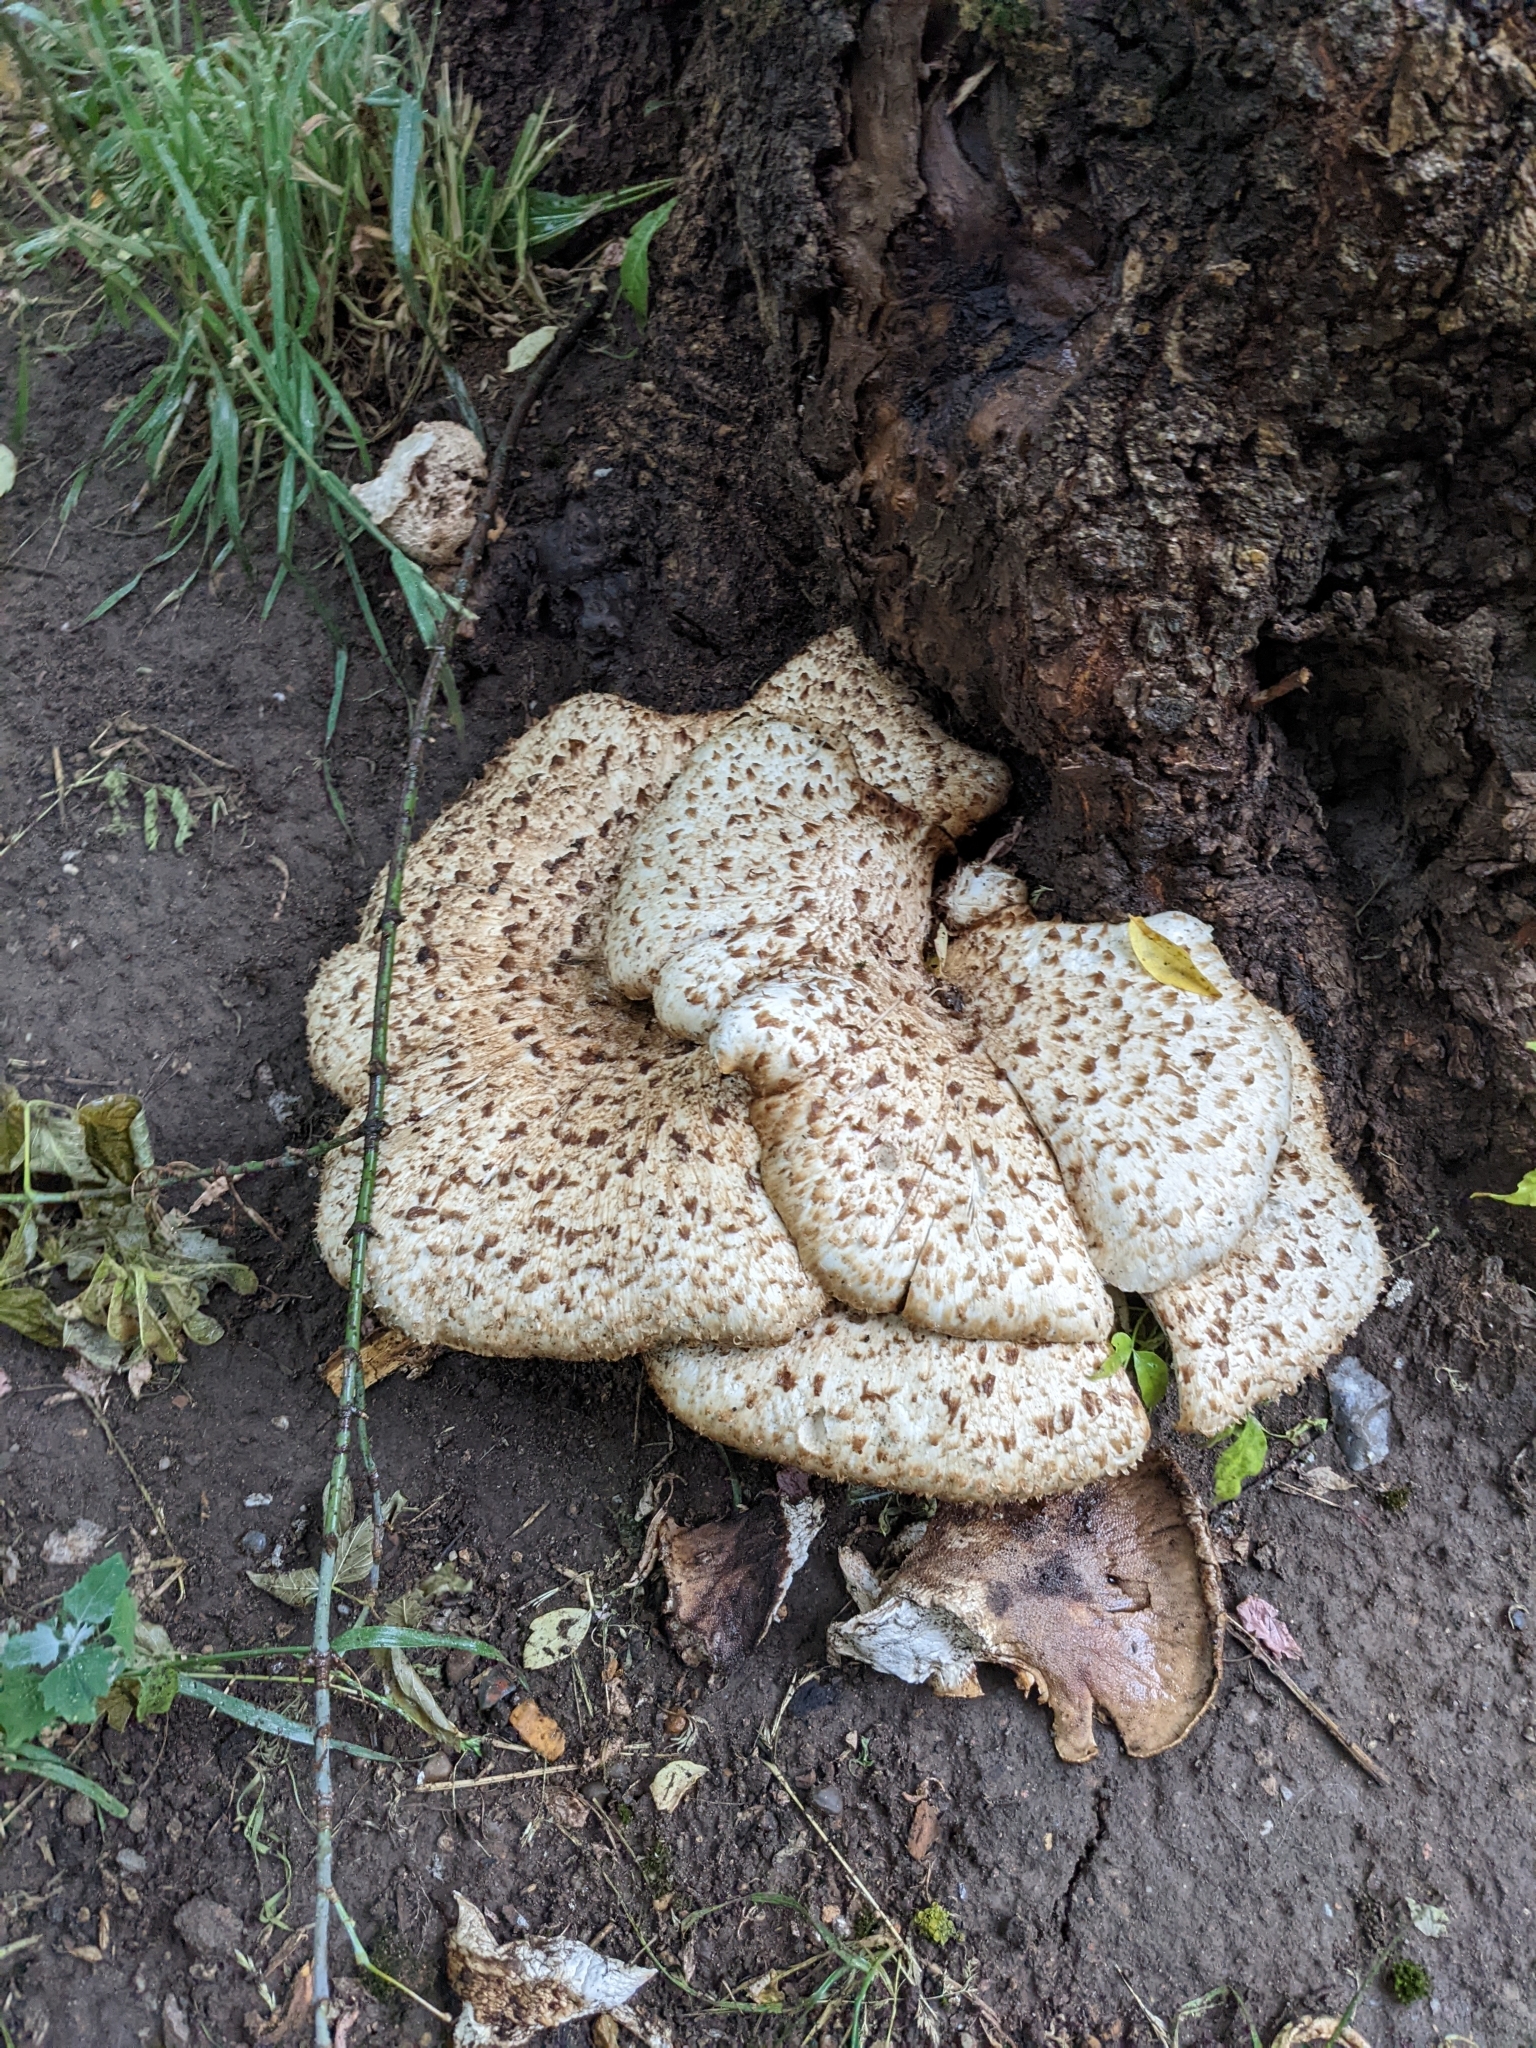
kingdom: Fungi
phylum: Basidiomycota
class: Agaricomycetes
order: Polyporales
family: Polyporaceae
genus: Cerioporus
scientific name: Cerioporus squamosus
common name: Dryad's saddle
